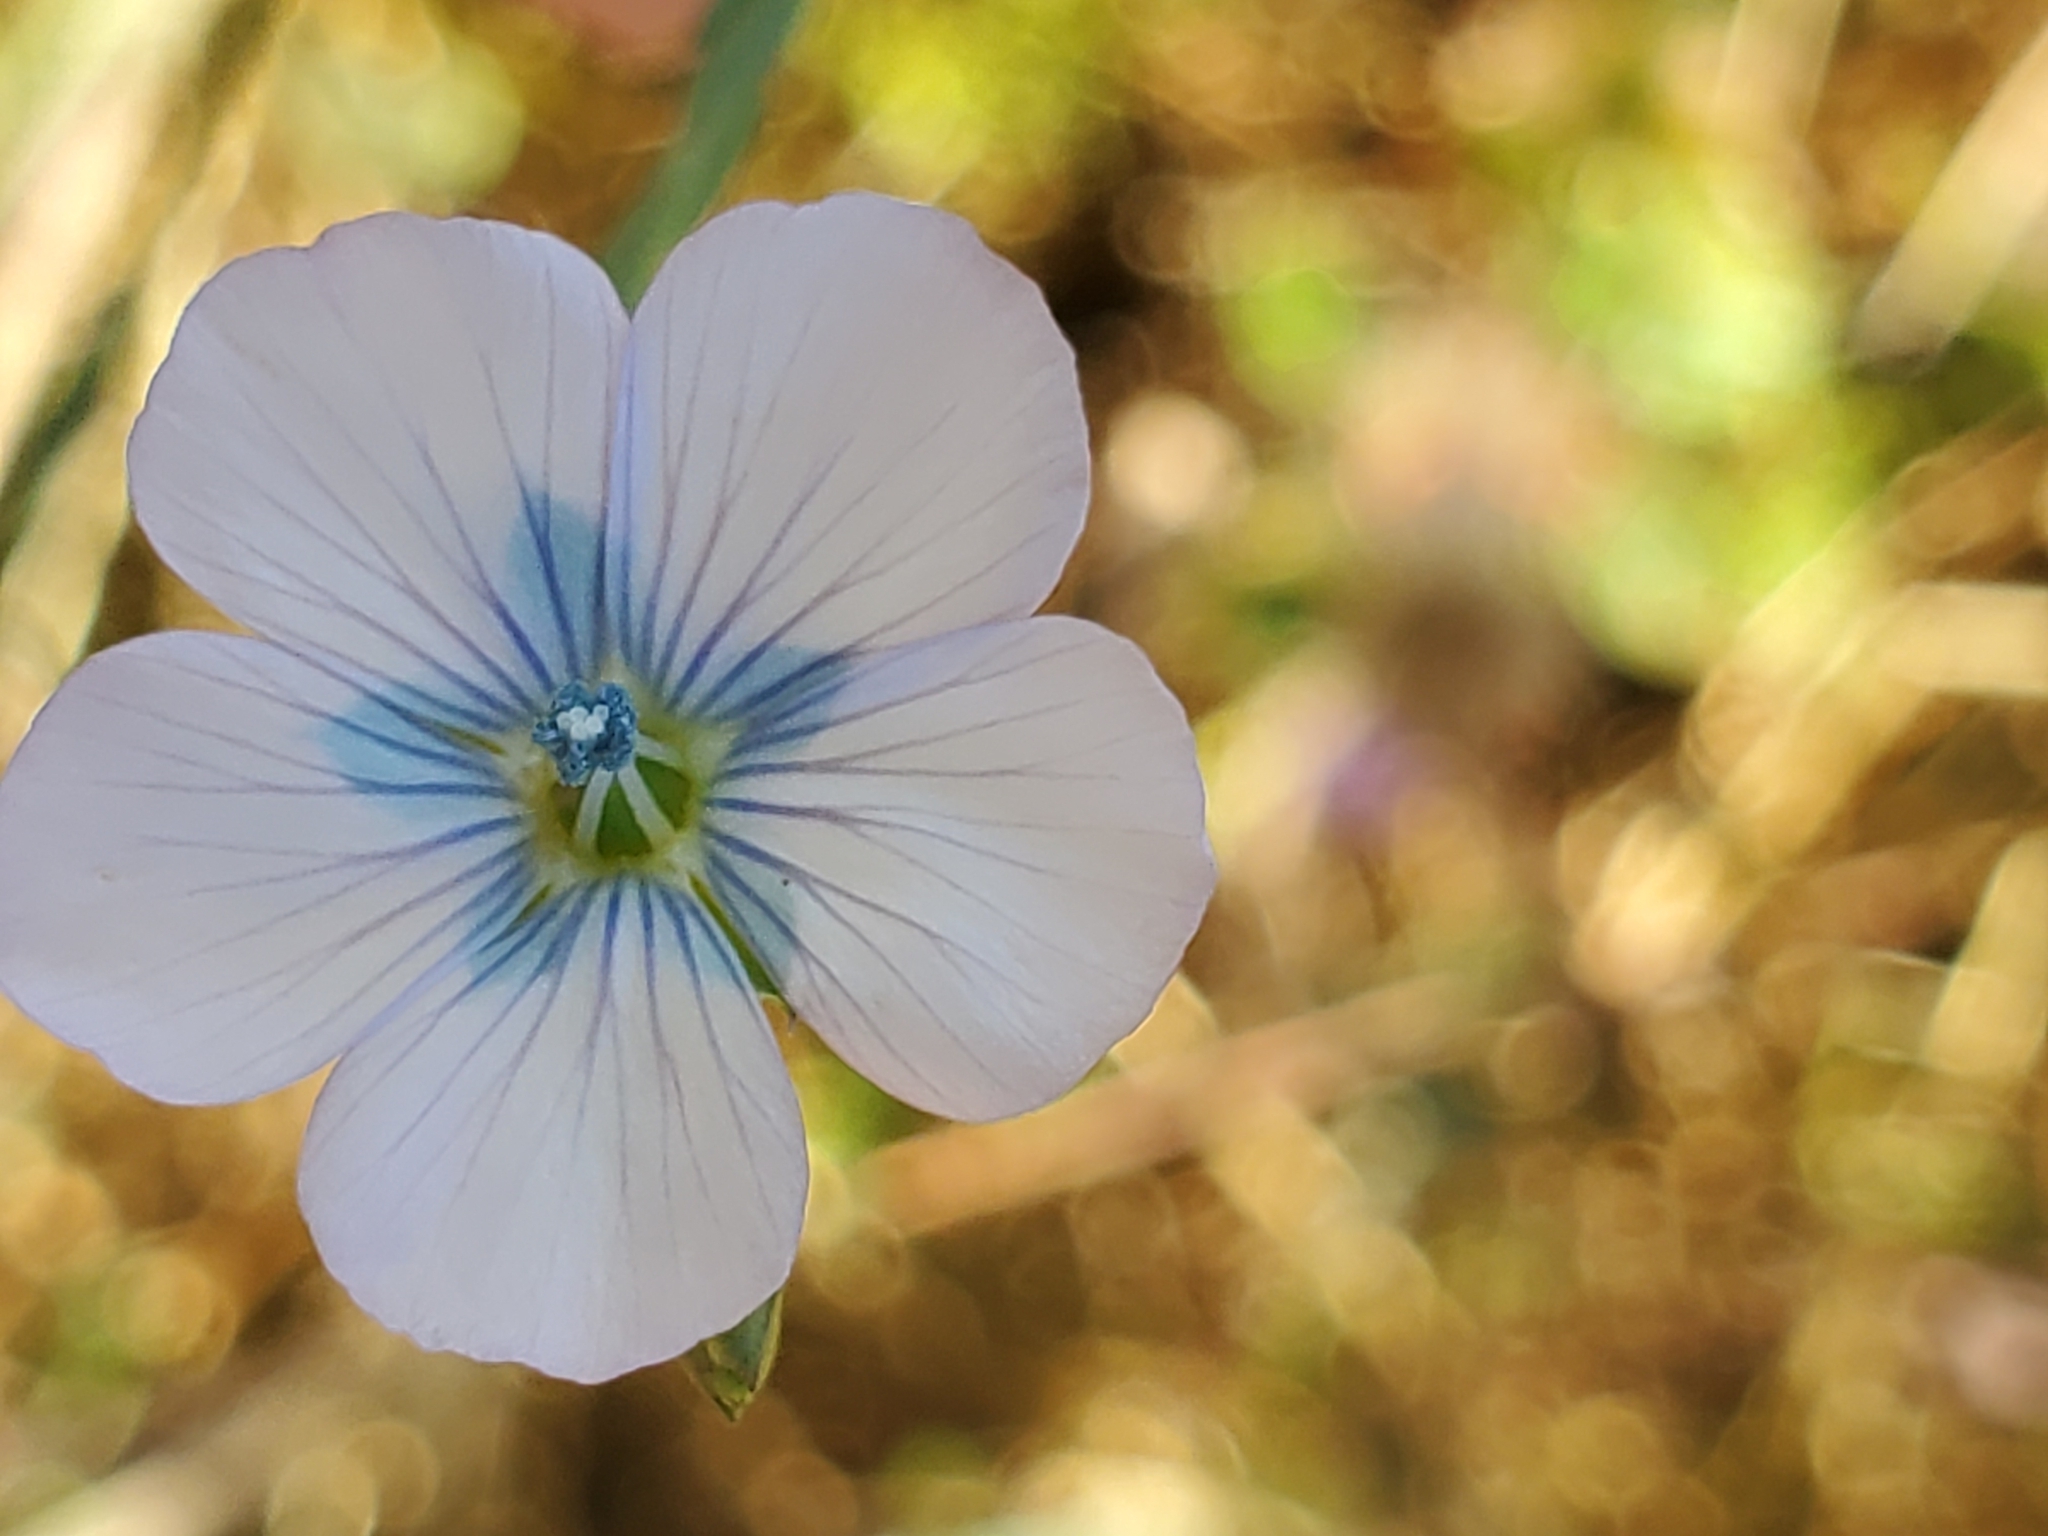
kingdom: Plantae
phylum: Tracheophyta
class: Magnoliopsida
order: Malpighiales
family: Linaceae
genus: Linum
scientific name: Linum bienne
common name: Pale flax
